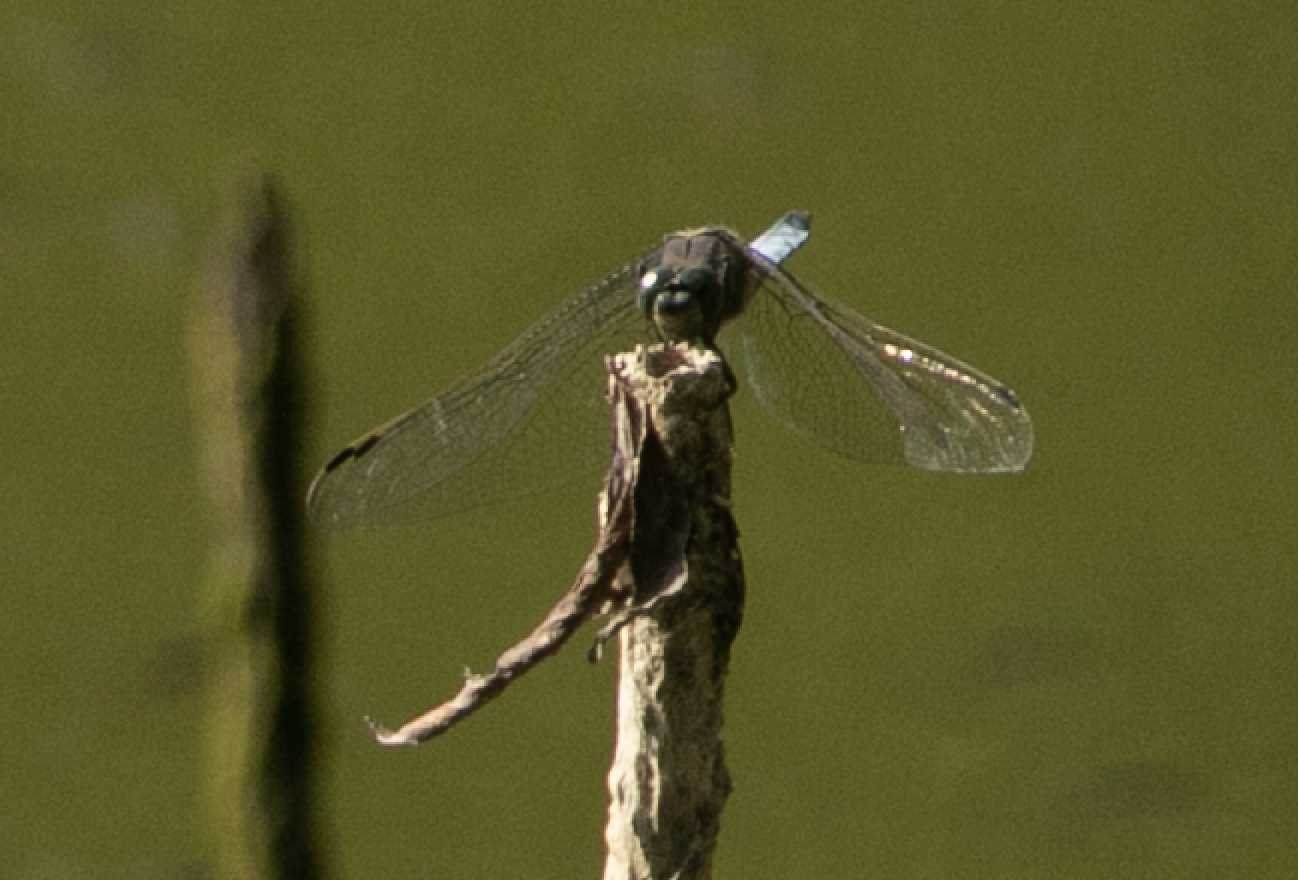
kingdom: Animalia
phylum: Arthropoda
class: Insecta
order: Odonata
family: Libellulidae
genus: Orthetrum
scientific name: Orthetrum cancellatum
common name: Black-tailed skimmer
